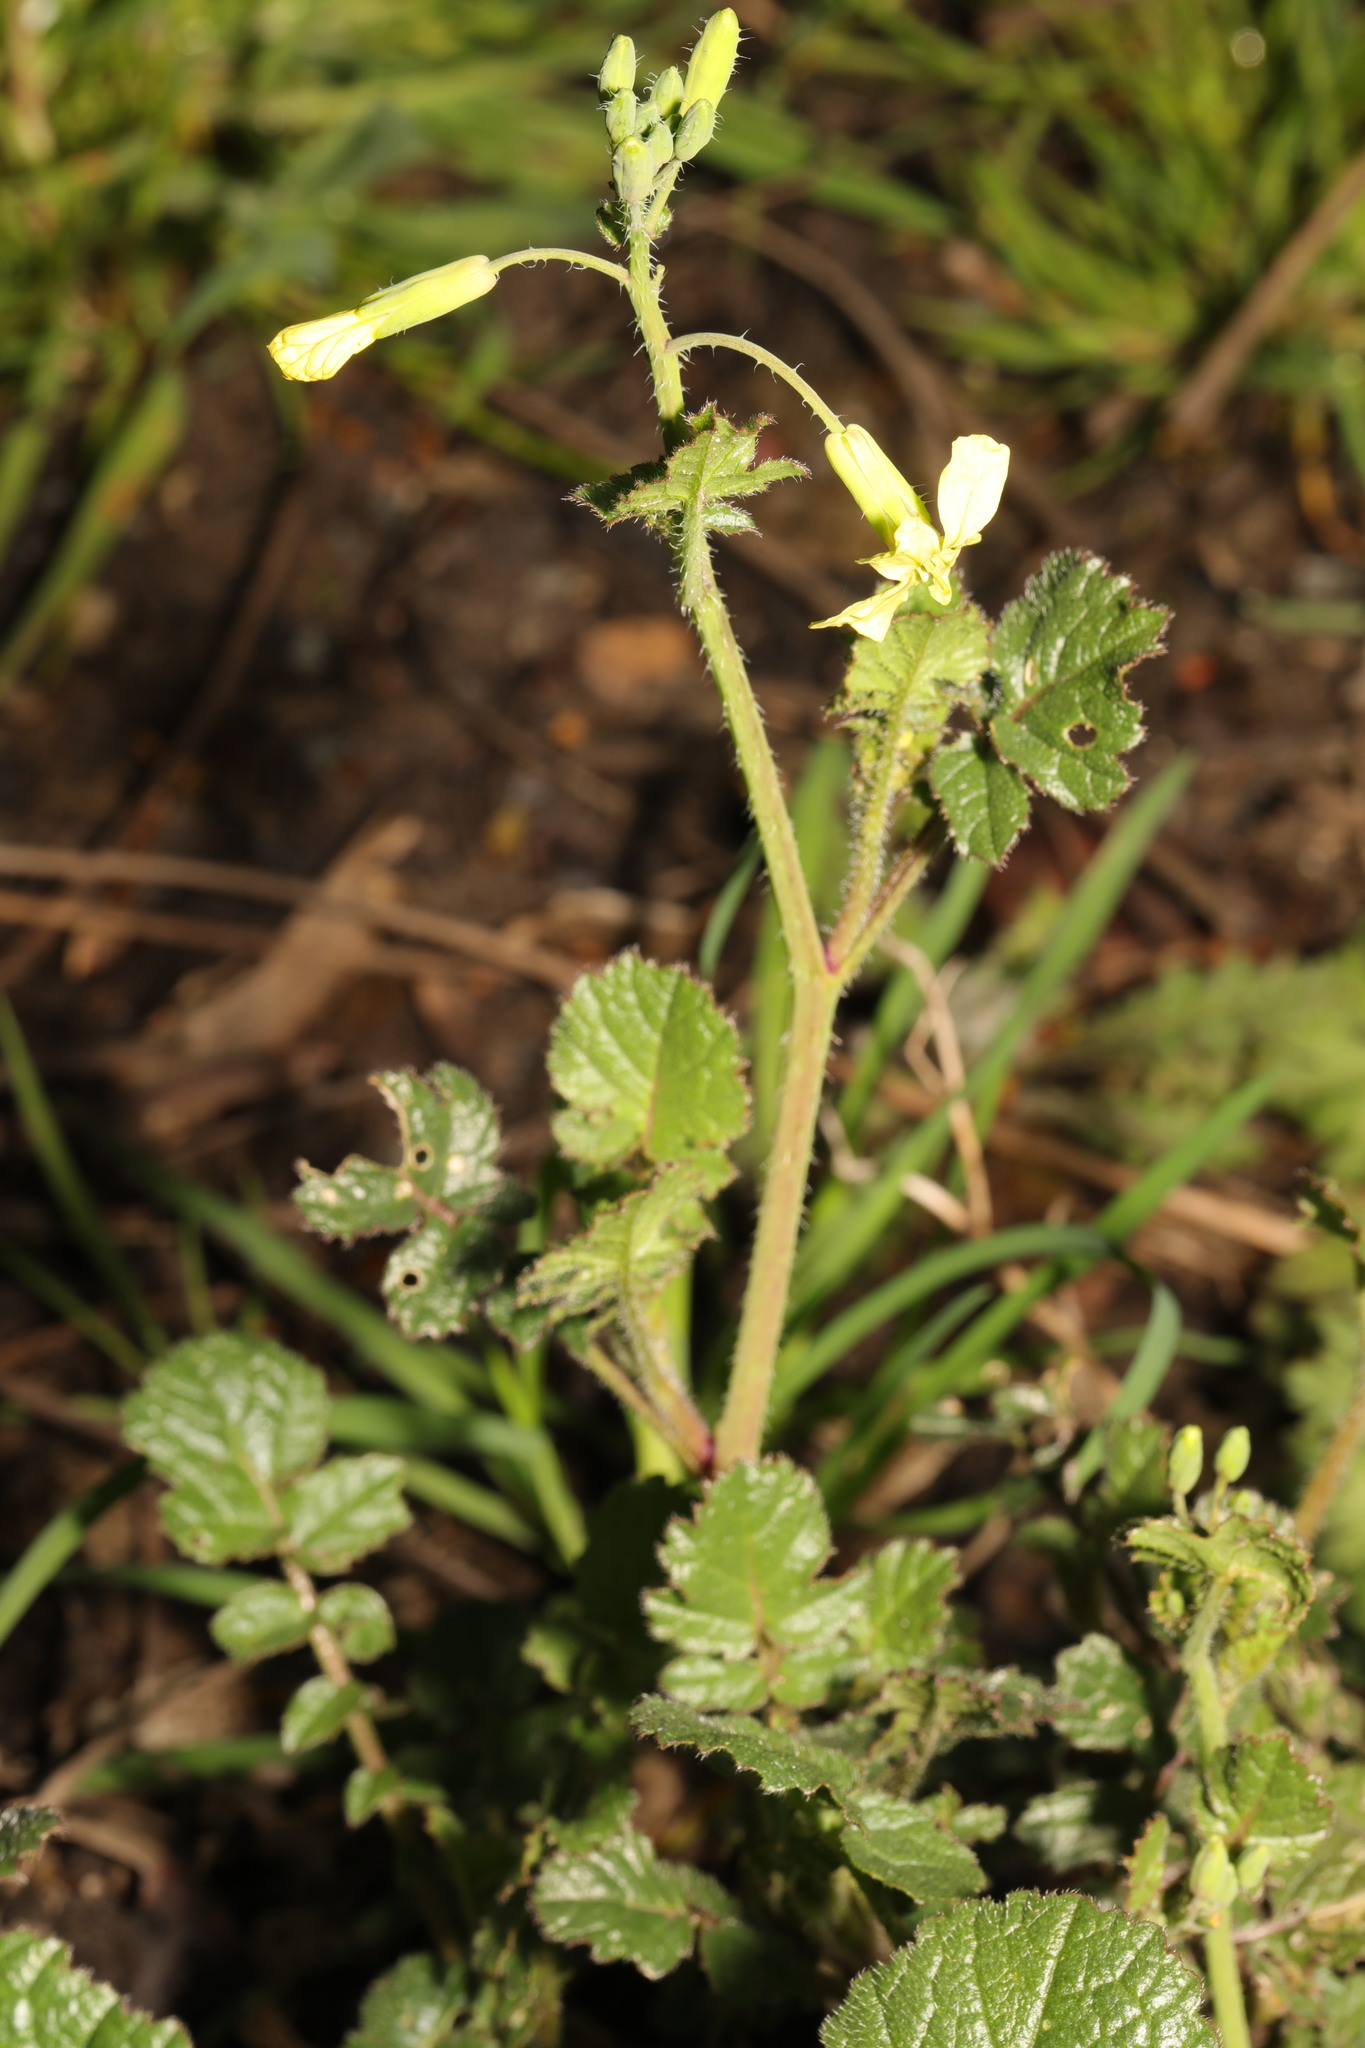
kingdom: Plantae
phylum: Tracheophyta
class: Magnoliopsida
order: Brassicales
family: Brassicaceae
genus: Raphanus
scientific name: Raphanus raphanistrum
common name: Wild radish
